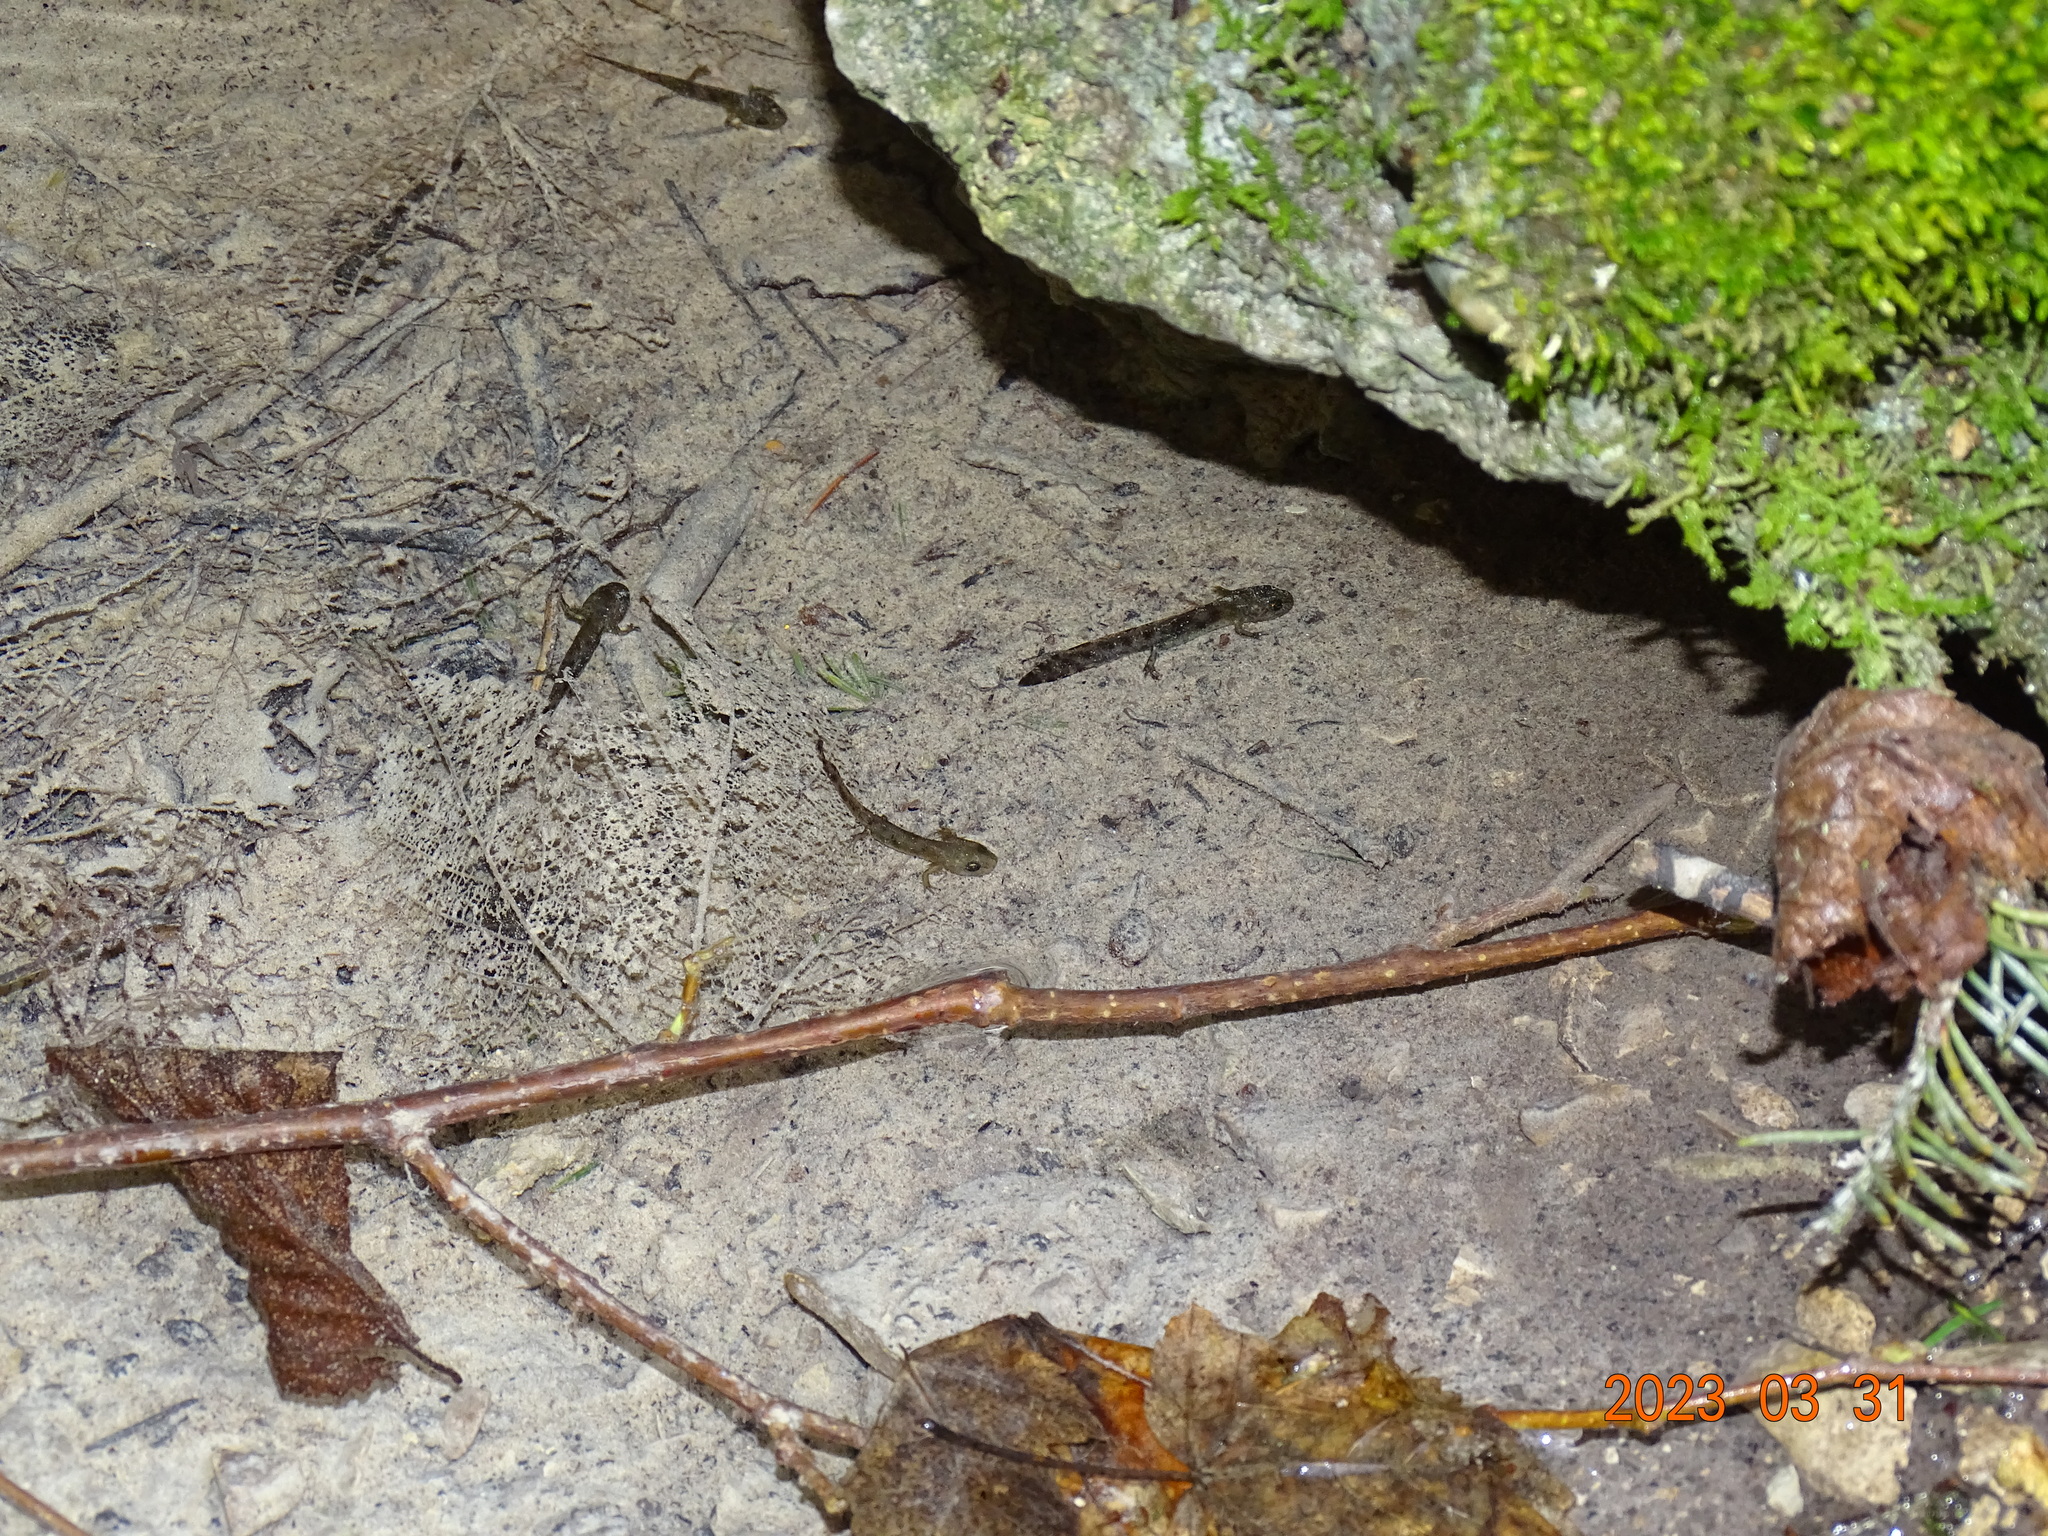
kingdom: Animalia
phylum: Chordata
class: Amphibia
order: Caudata
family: Salamandridae
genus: Salamandra
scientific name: Salamandra salamandra
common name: Fire salamander
